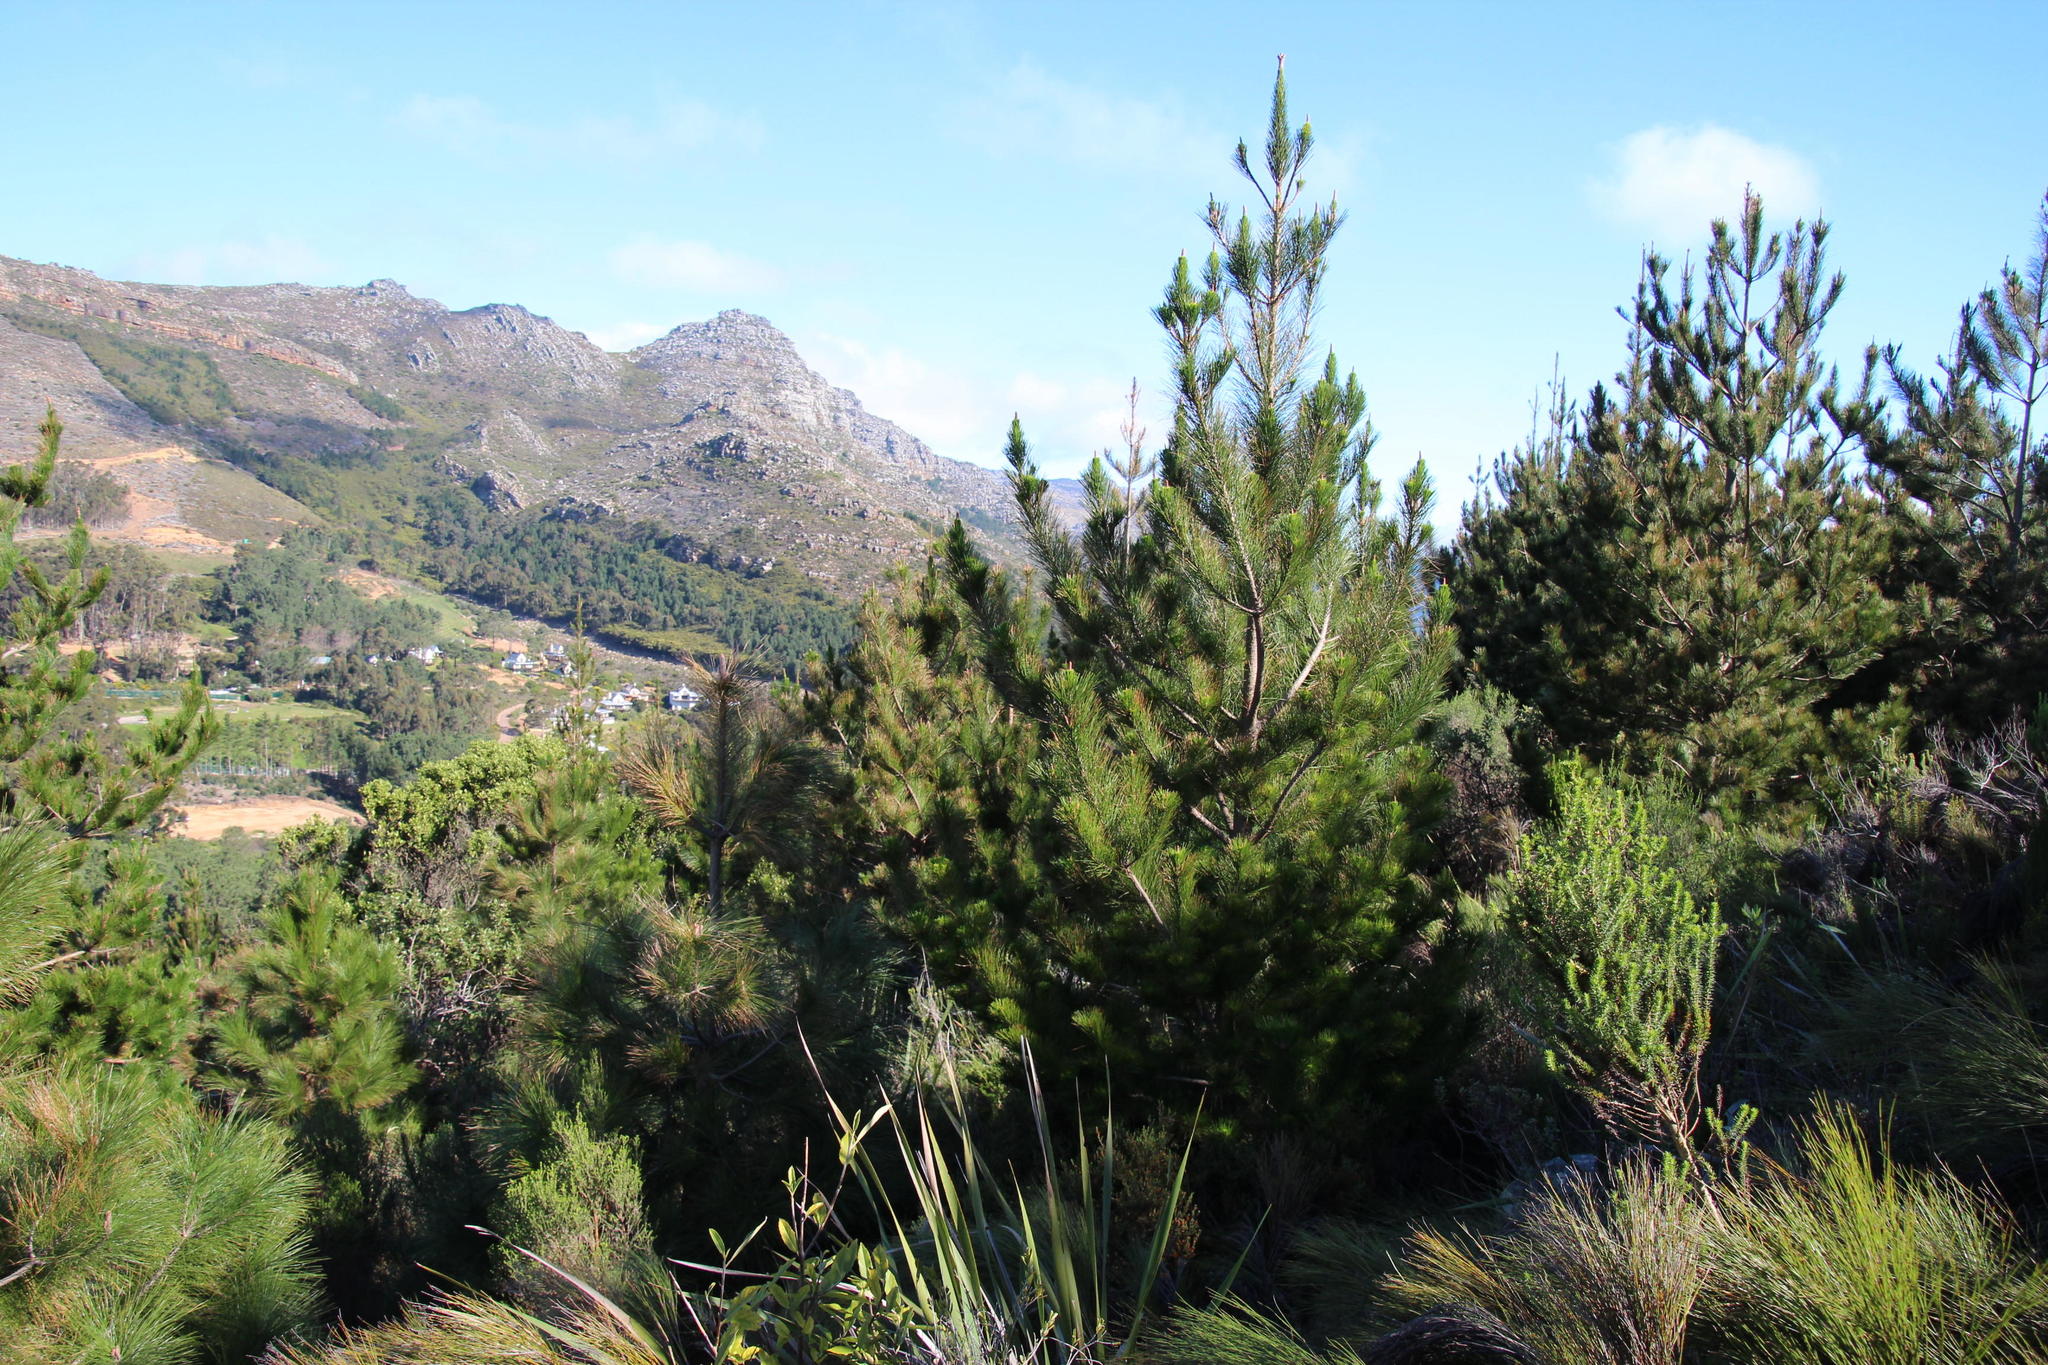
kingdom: Plantae
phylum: Tracheophyta
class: Pinopsida
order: Pinales
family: Pinaceae
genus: Pinus
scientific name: Pinus canariensis
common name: Canary islands pine
